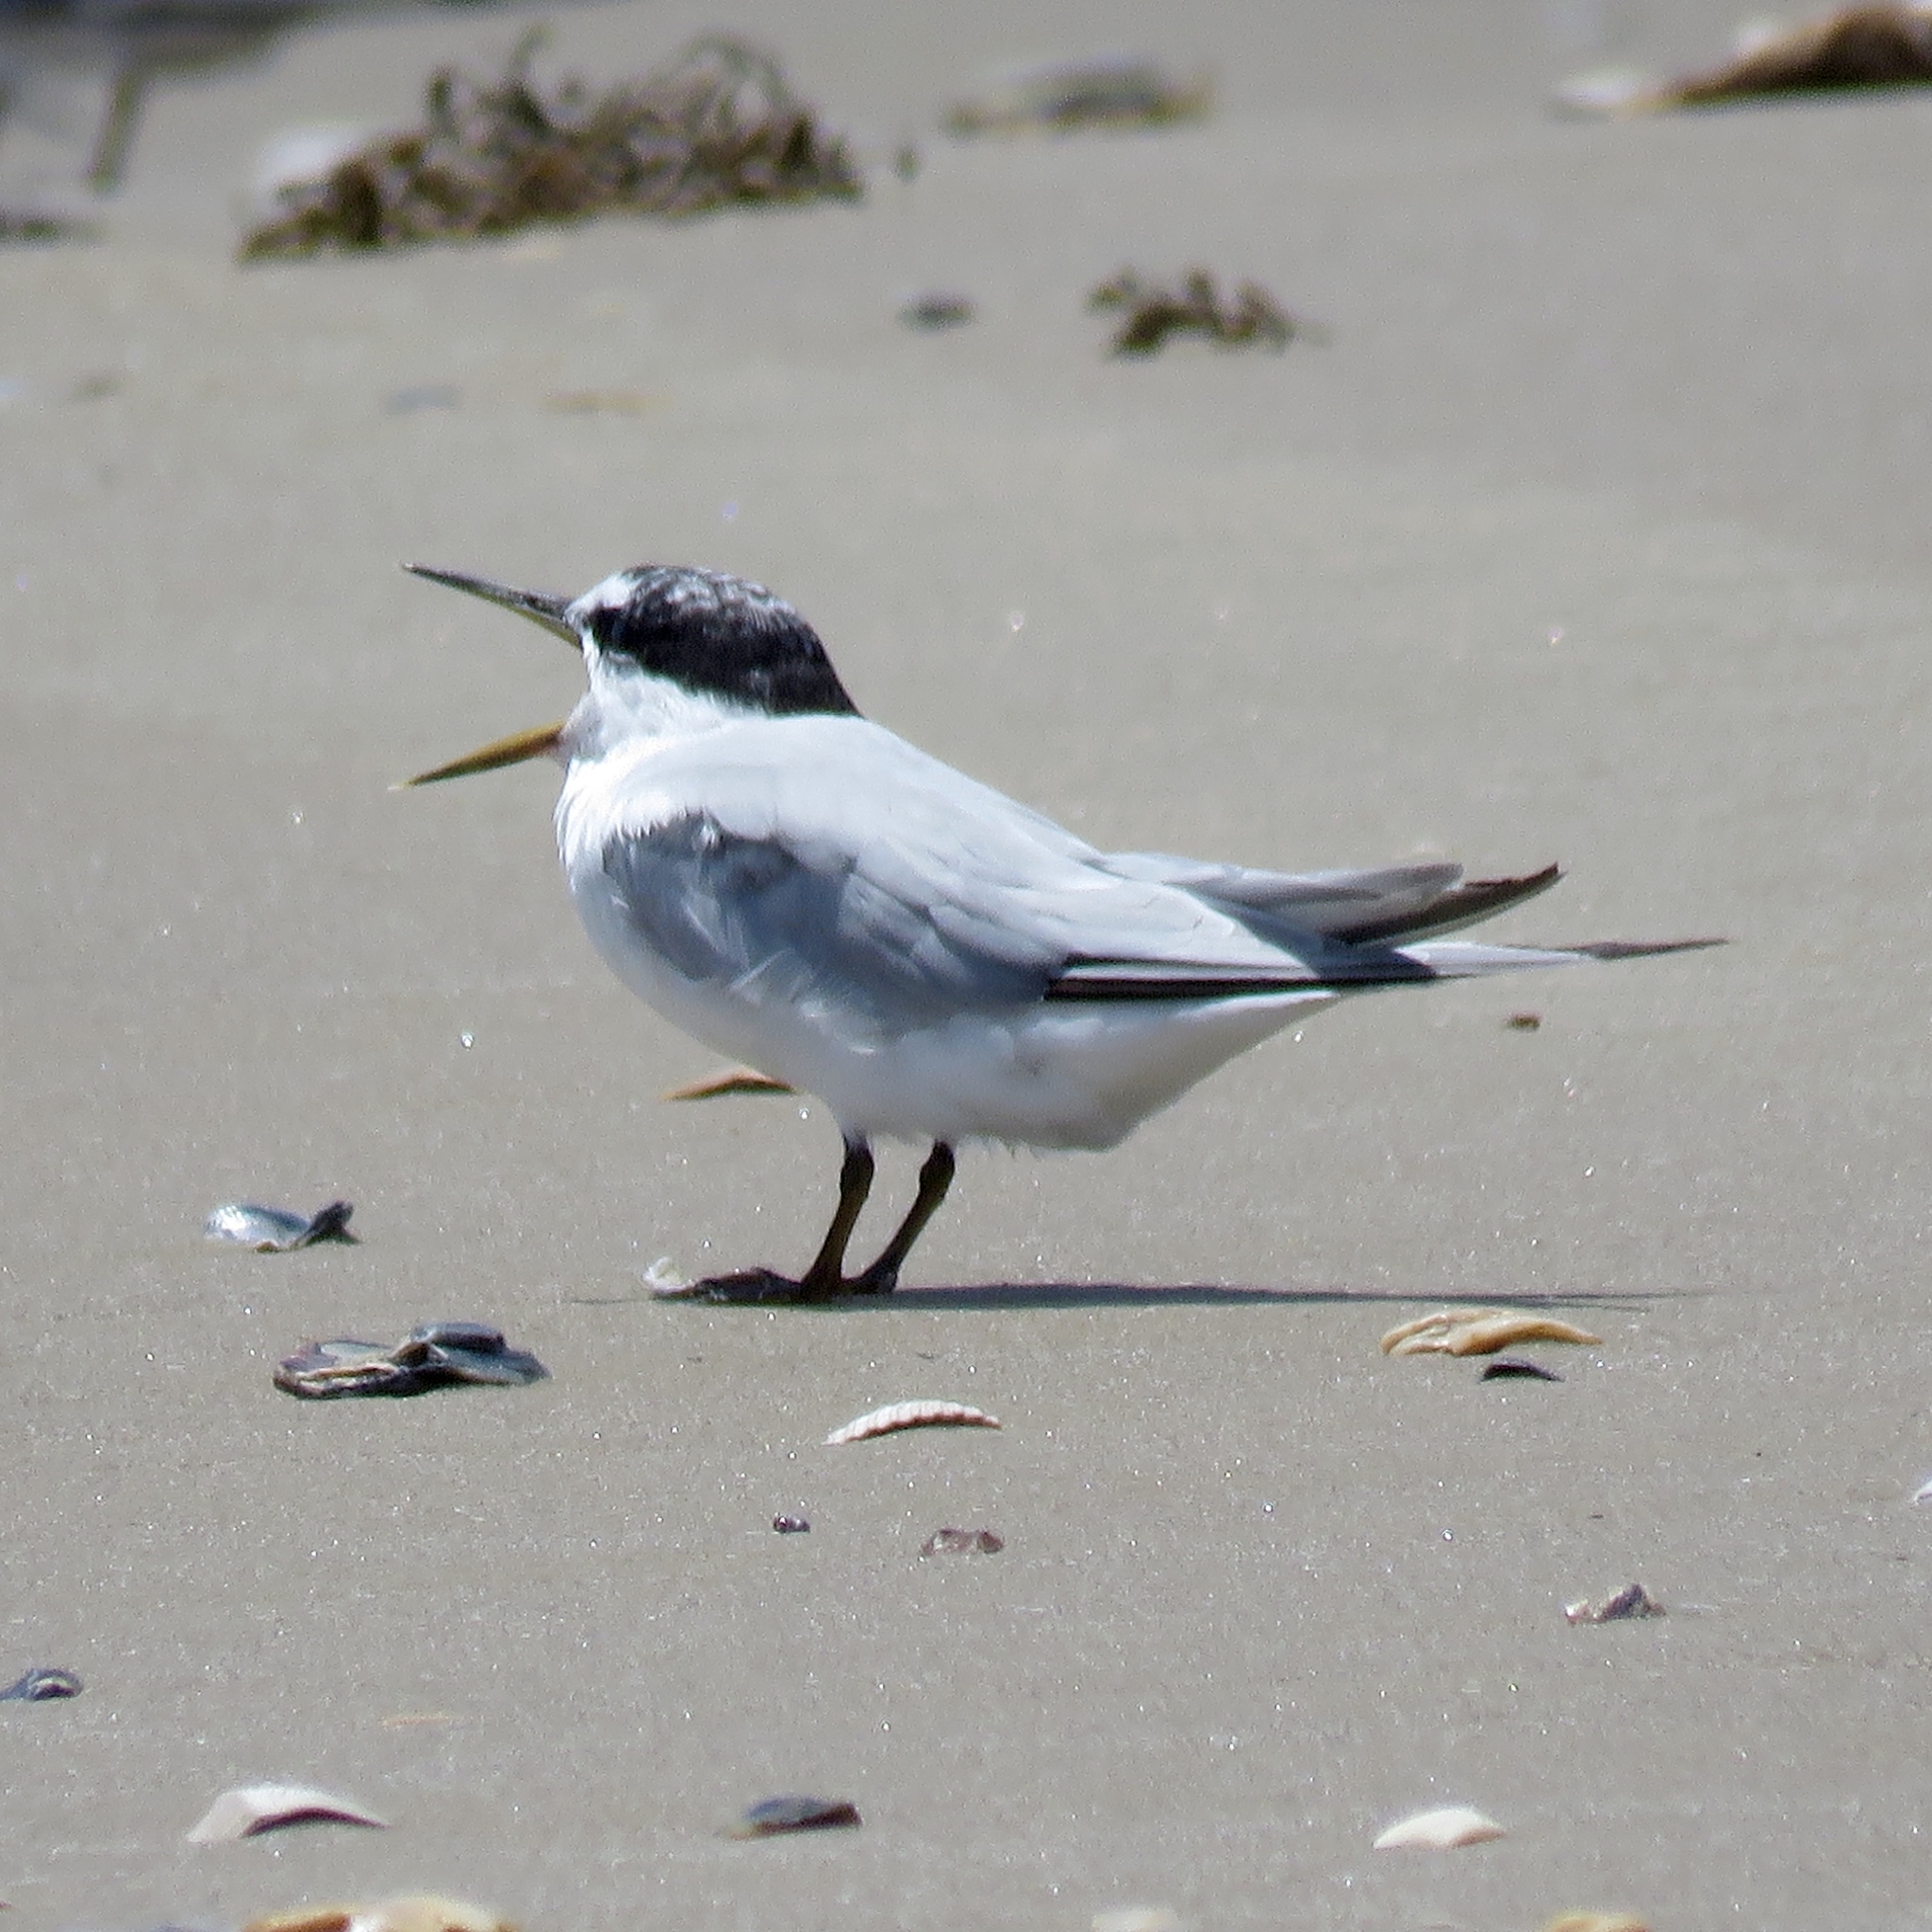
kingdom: Animalia
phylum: Chordata
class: Aves
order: Charadriiformes
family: Laridae
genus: Sternula
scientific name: Sternula antillarum
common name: Least tern
